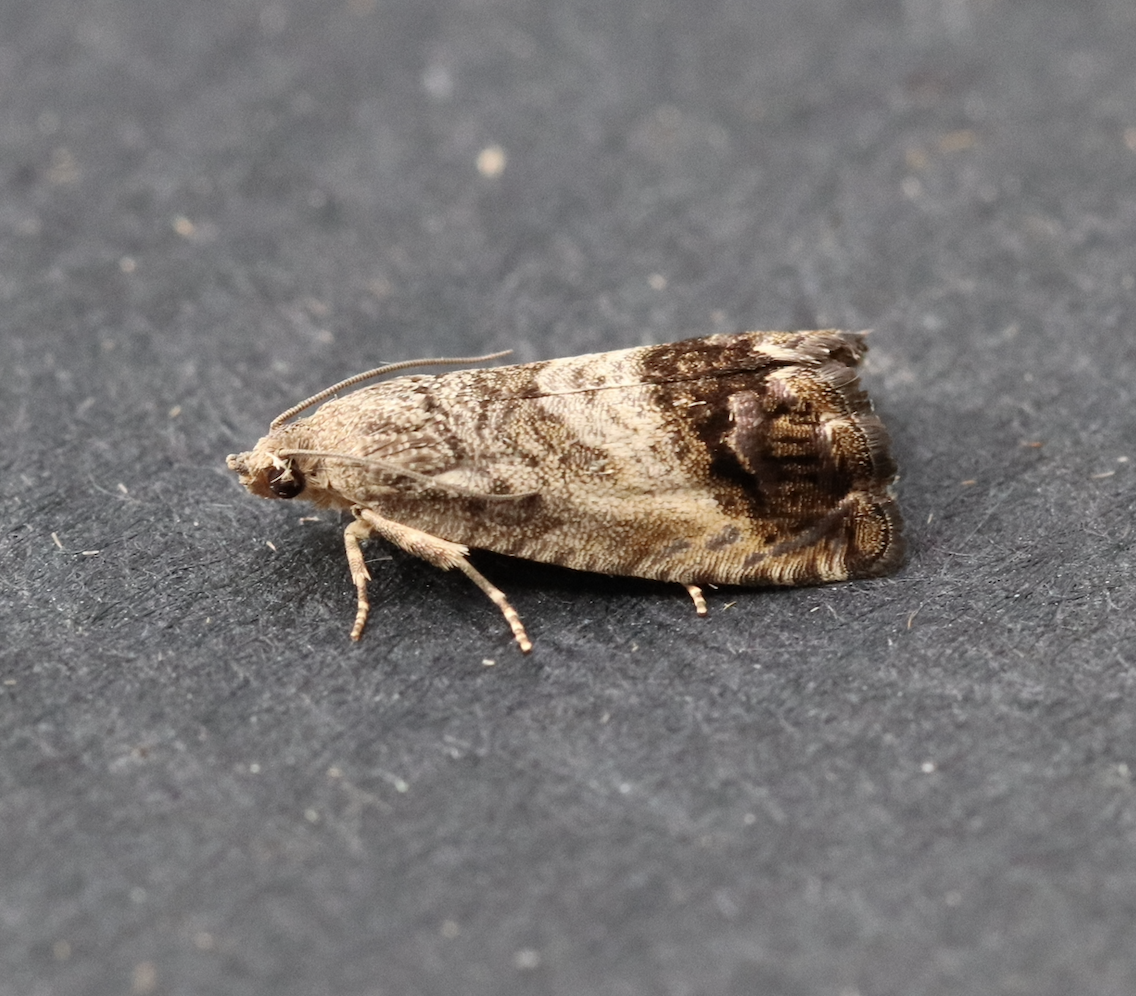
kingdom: Animalia
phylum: Arthropoda
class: Insecta
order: Lepidoptera
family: Tortricidae
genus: Cydia
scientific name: Cydia splendana
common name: De: kastanienwickler, eichenwickler es: oruga de la castaña fr: carpocapse des châtaignes it: cidia o tortrice tardiva delle castagne pt: bichado das castanhas gb: acorn moth, chestnut fruit tortrix
